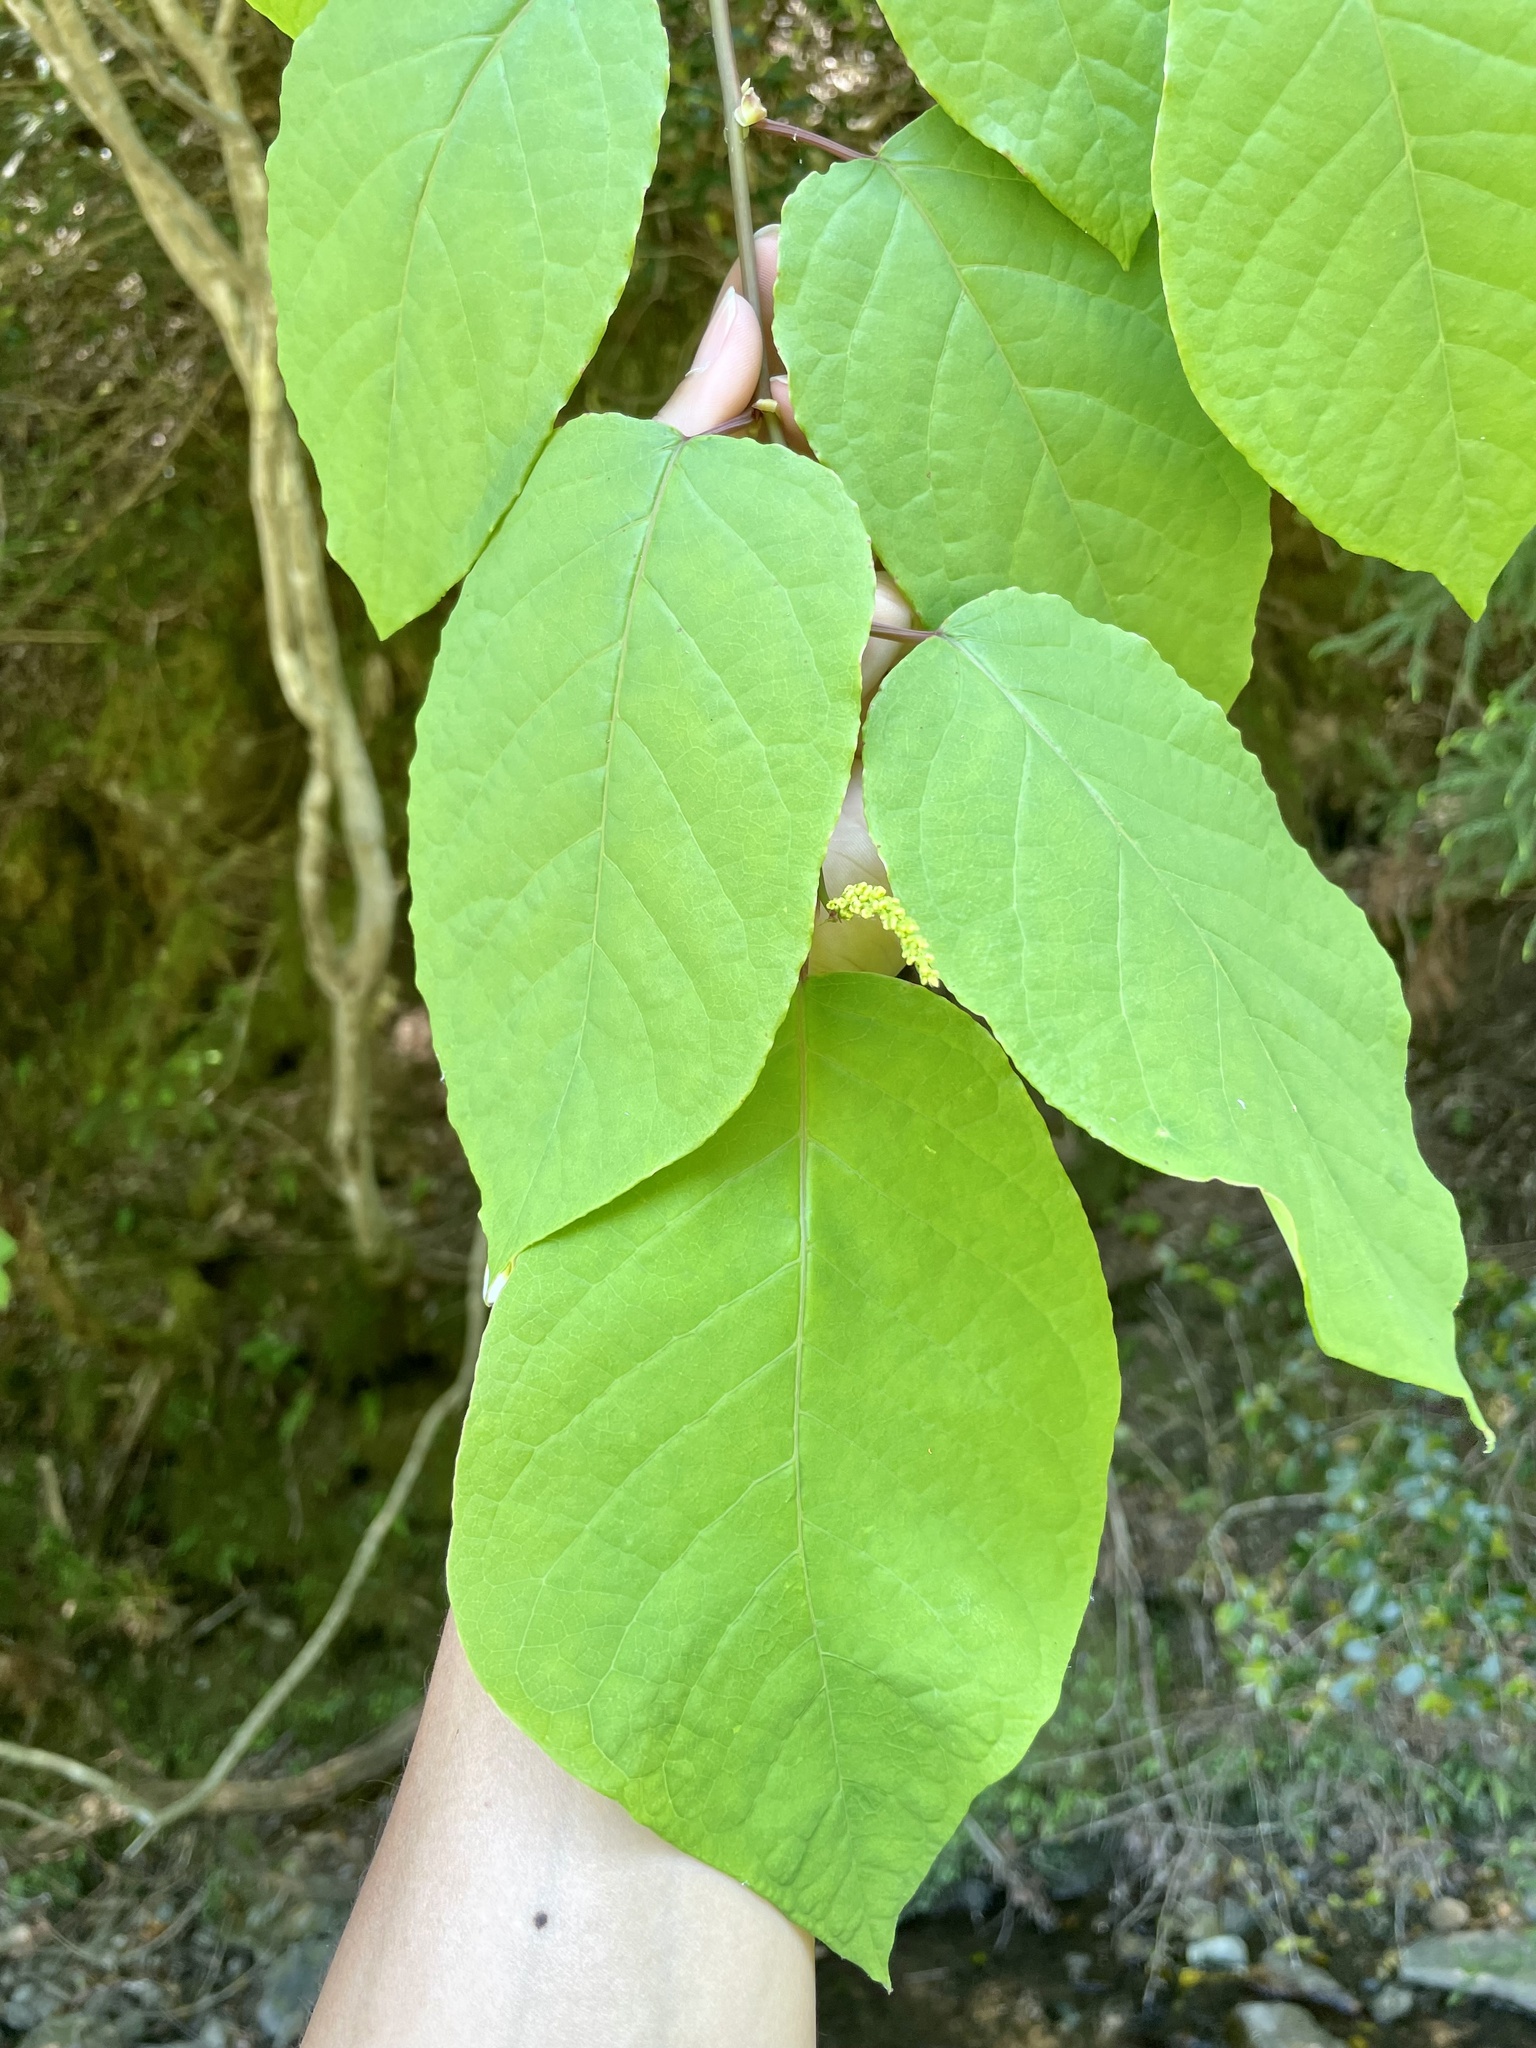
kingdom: Plantae
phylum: Tracheophyta
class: Magnoliopsida
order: Malpighiales
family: Euphorbiaceae
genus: Neoshirakia
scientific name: Neoshirakia japonica
